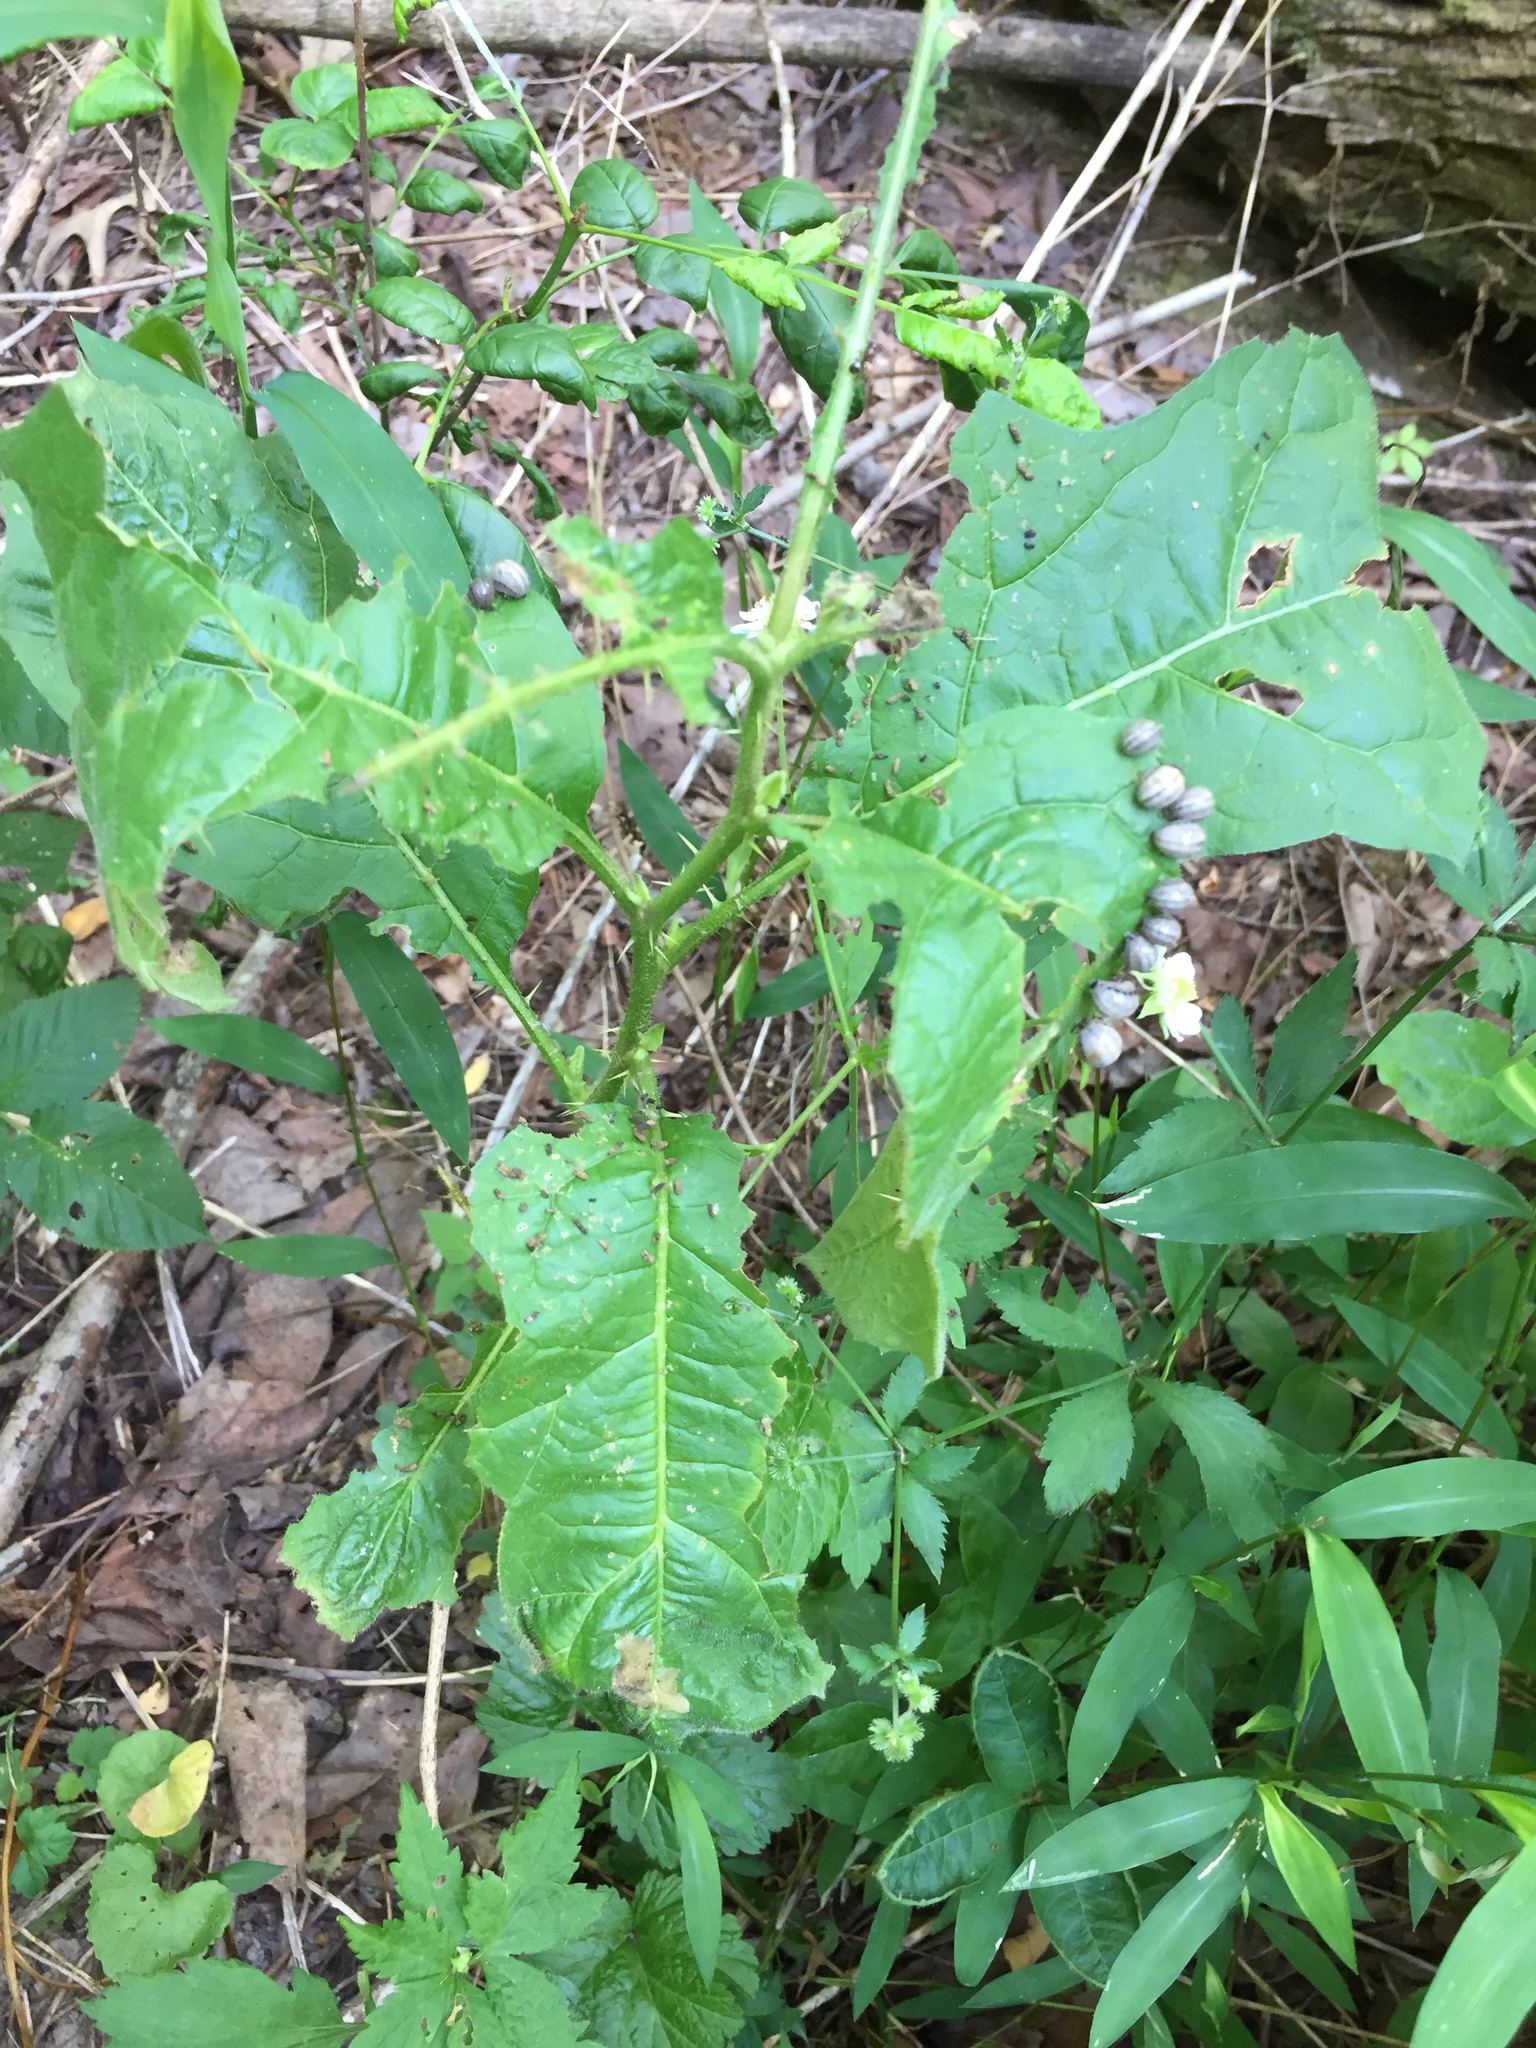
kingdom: Animalia
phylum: Arthropoda
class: Insecta
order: Coleoptera
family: Chrysomelidae
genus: Leptinotarsa
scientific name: Leptinotarsa juncta
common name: False potato beetle
